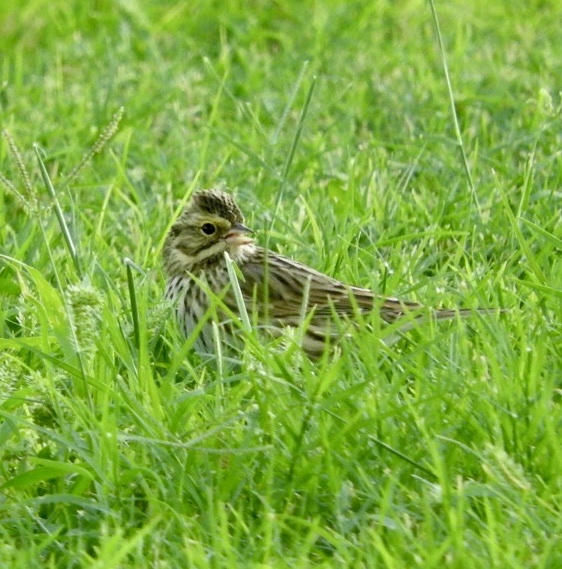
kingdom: Animalia
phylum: Chordata
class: Aves
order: Passeriformes
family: Passerellidae
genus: Passerculus
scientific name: Passerculus sandwichensis
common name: Savannah sparrow
